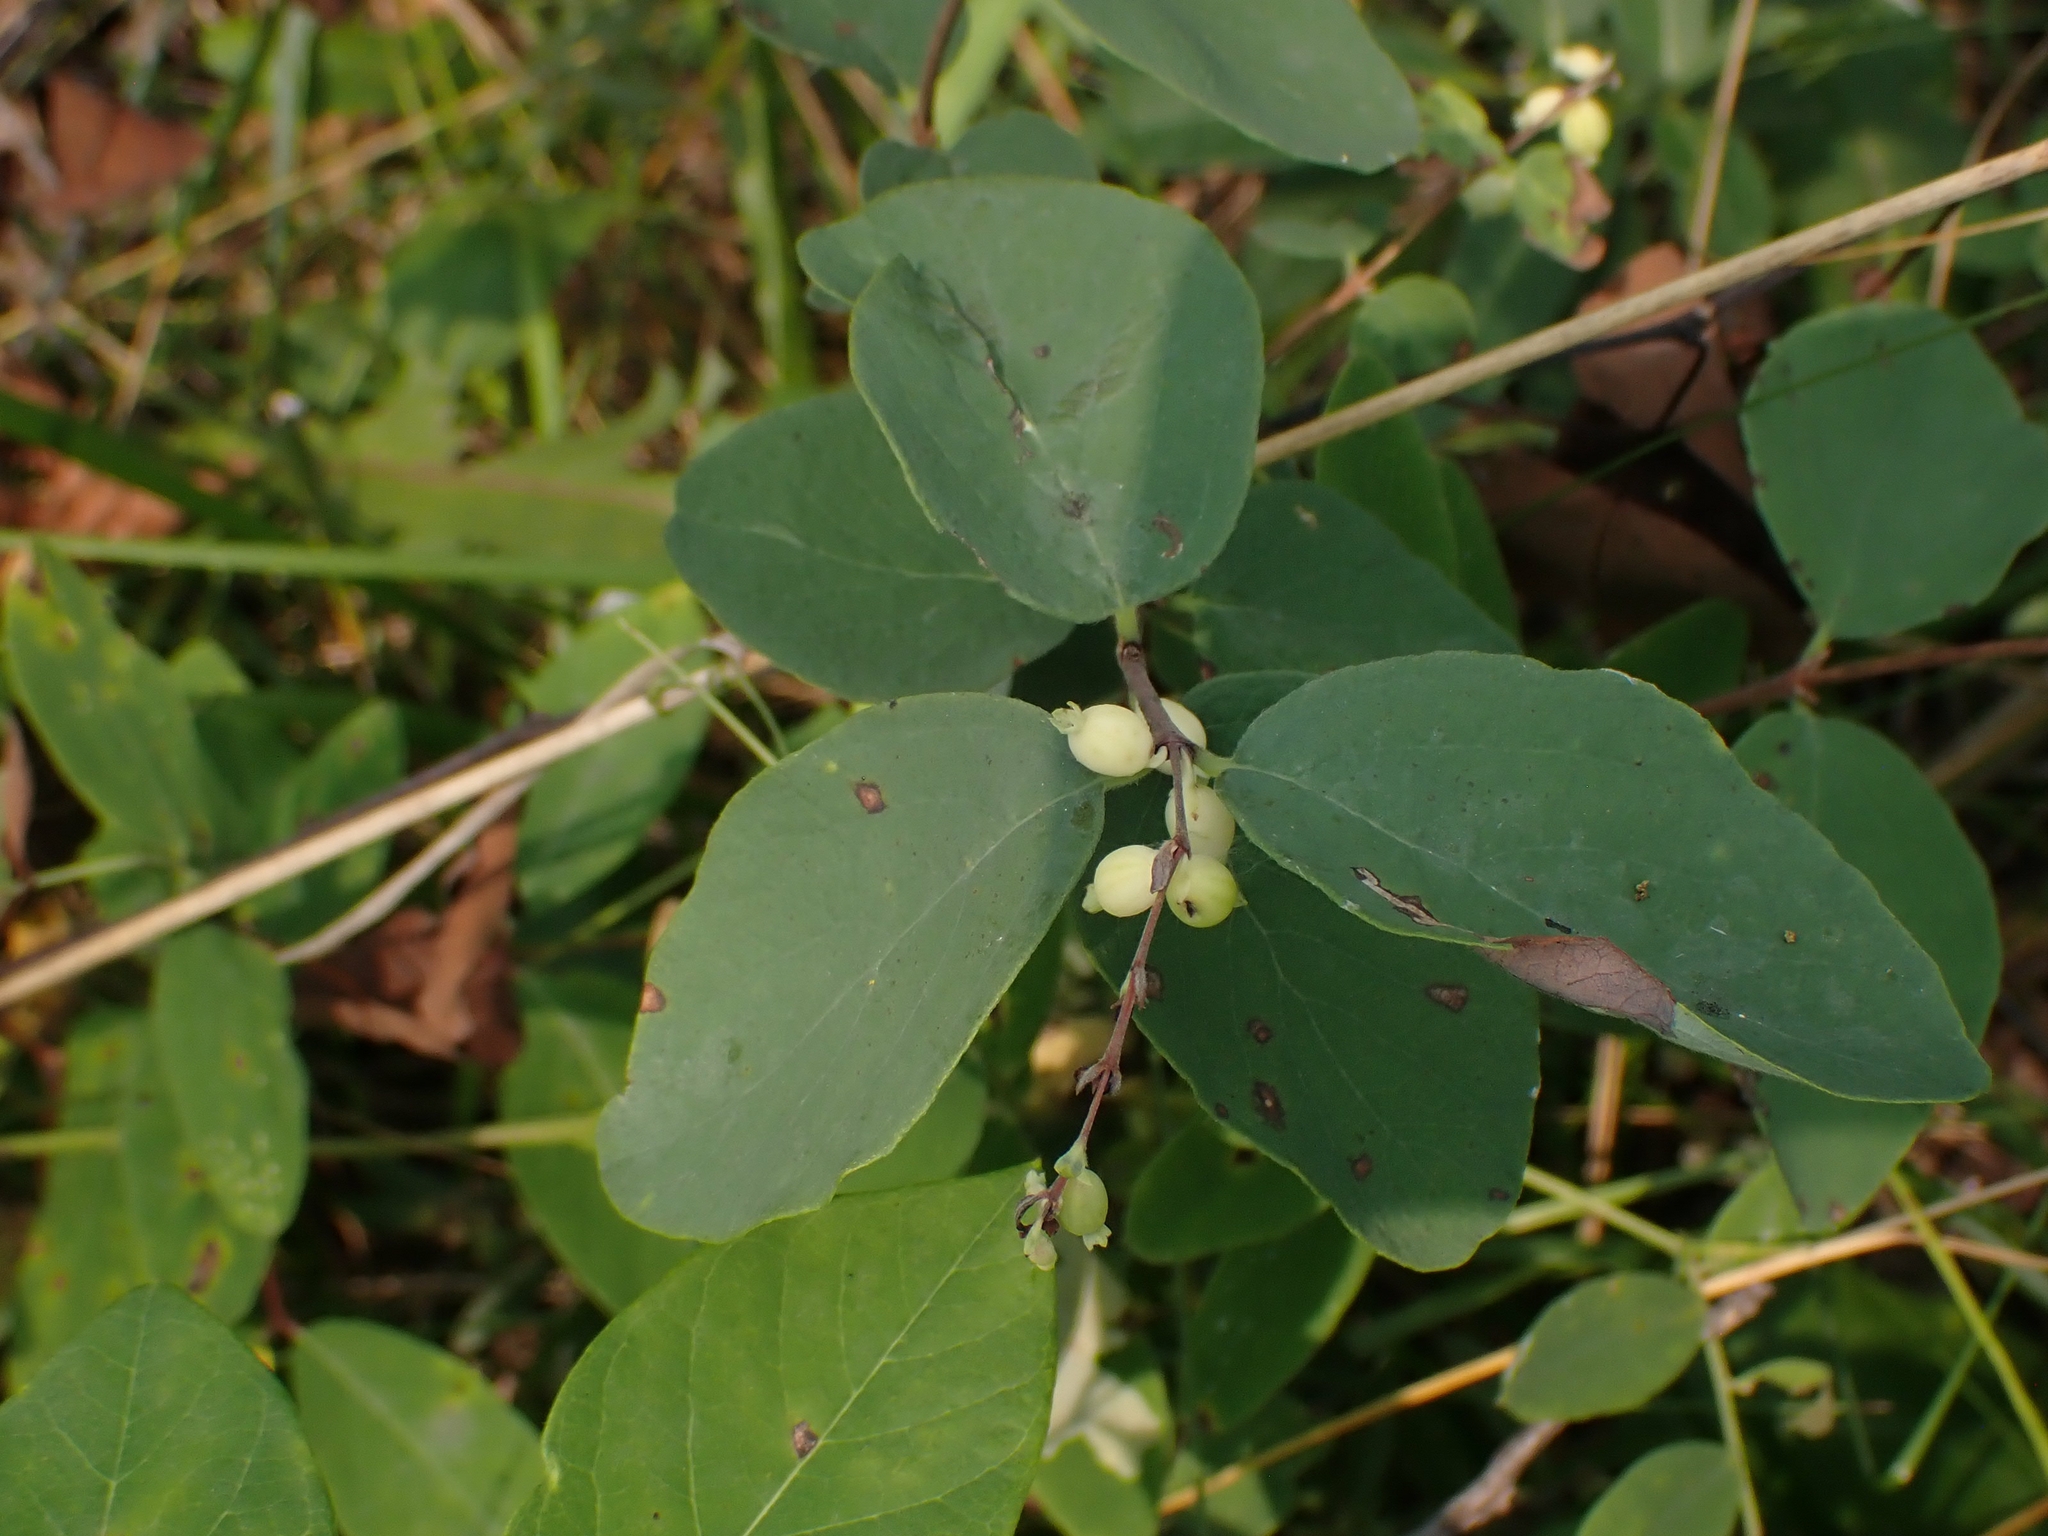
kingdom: Plantae
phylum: Tracheophyta
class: Magnoliopsida
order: Dipsacales
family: Caprifoliaceae
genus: Symphoricarpos
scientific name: Symphoricarpos occidentalis
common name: Wolfberry
